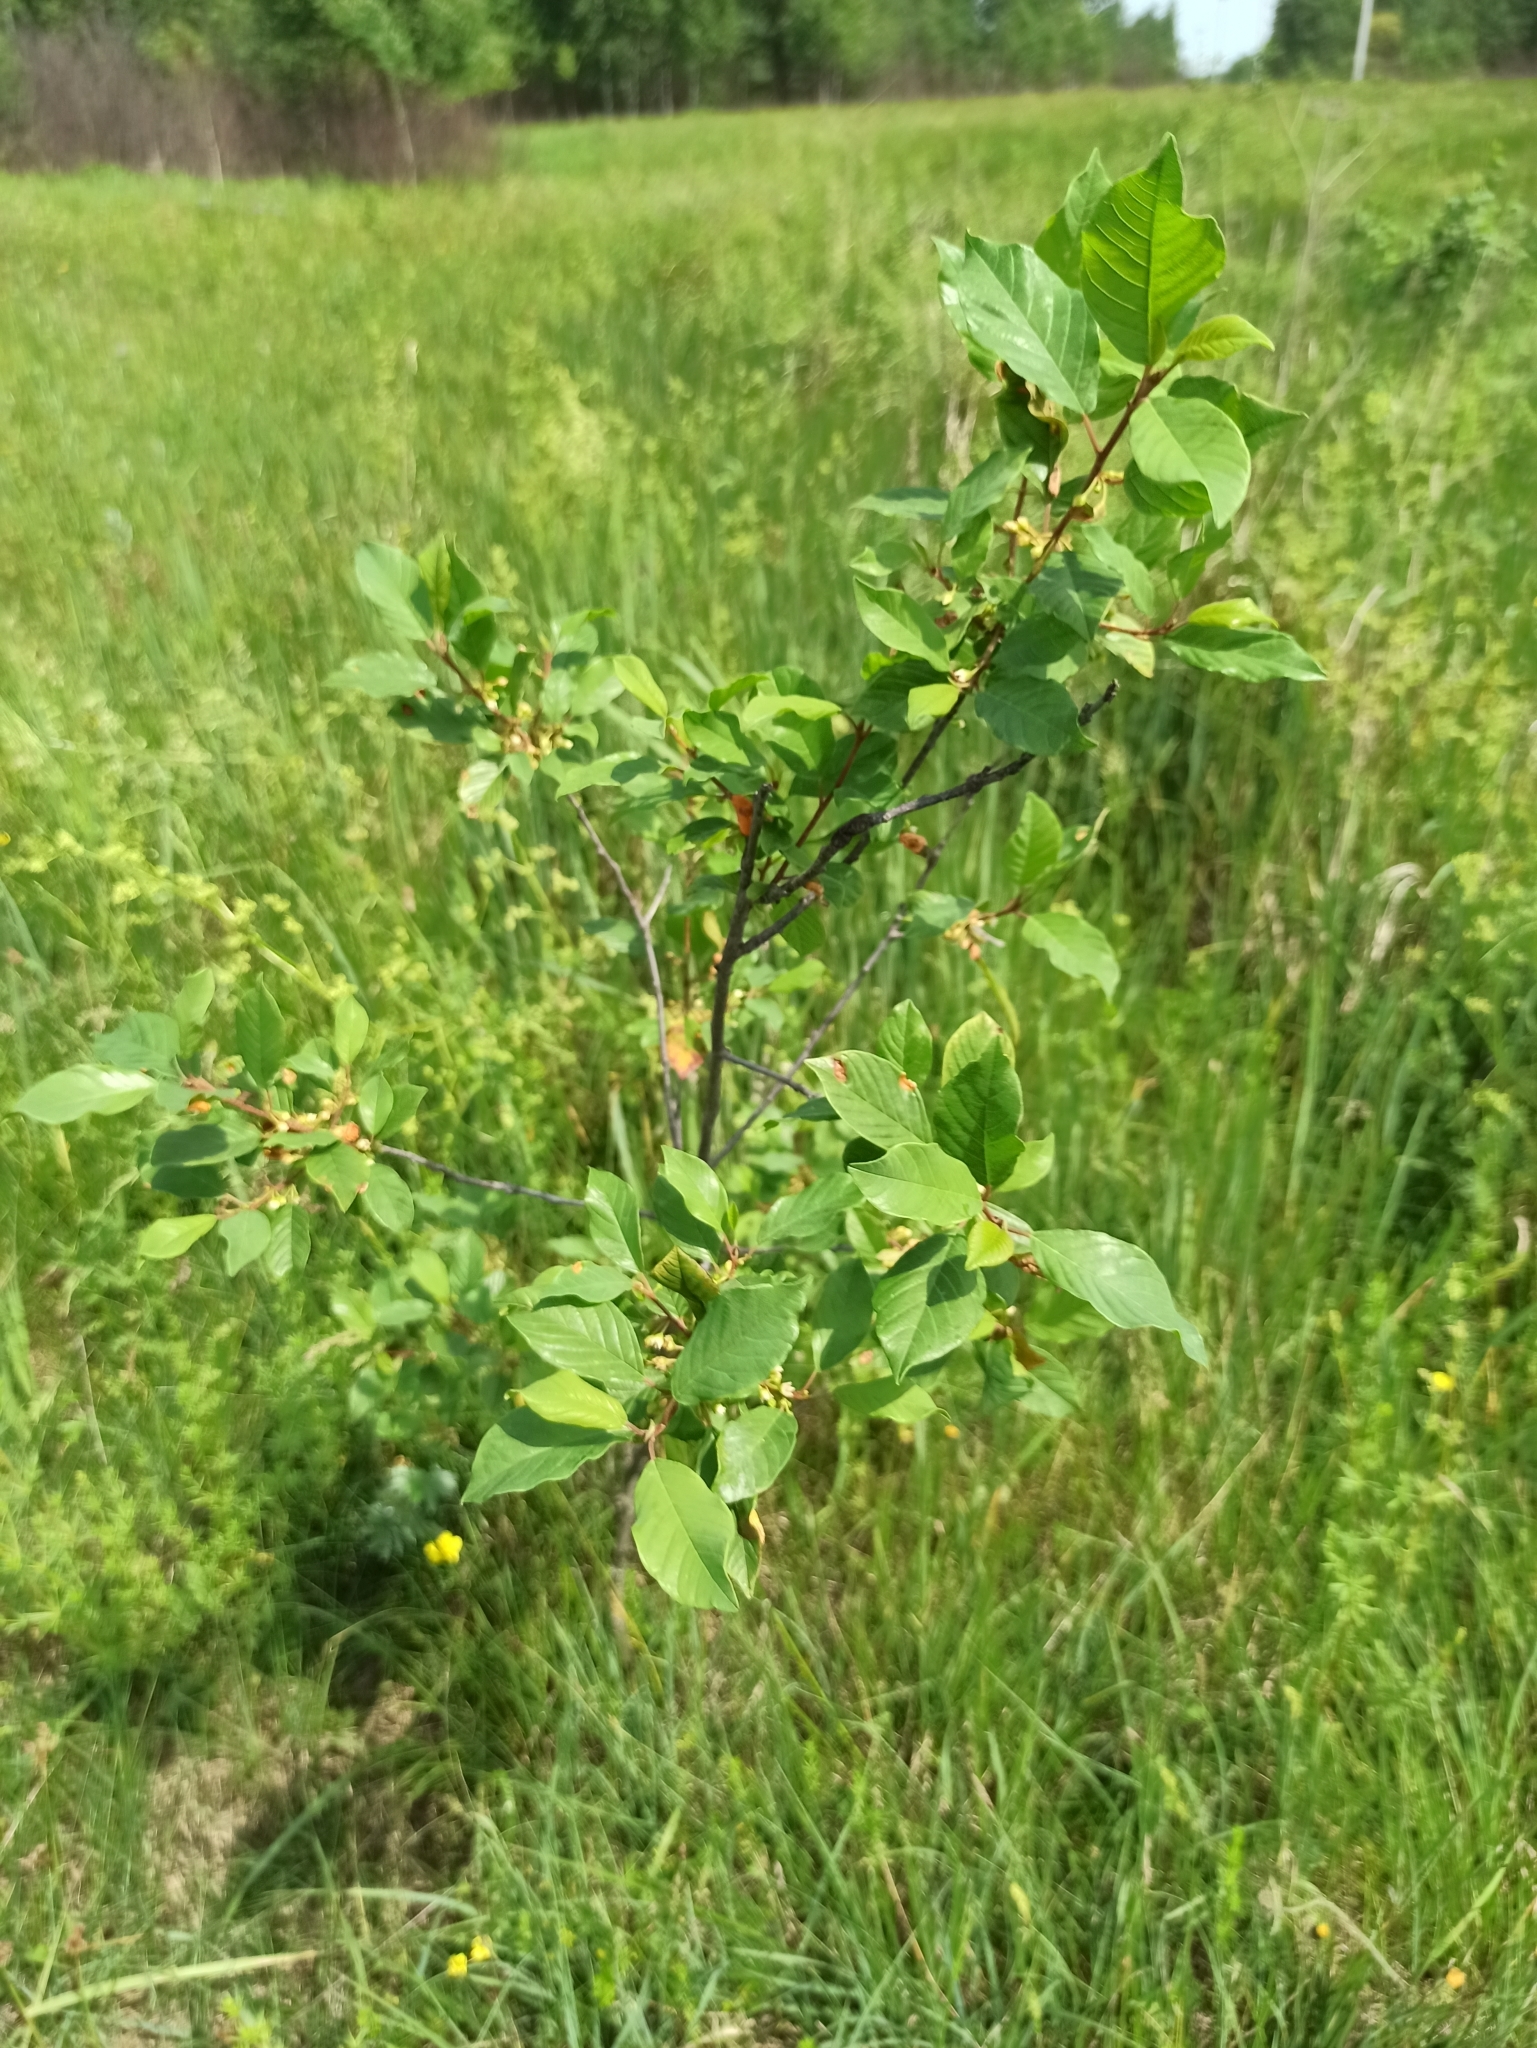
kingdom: Plantae
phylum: Tracheophyta
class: Magnoliopsida
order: Rosales
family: Rhamnaceae
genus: Frangula
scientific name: Frangula alnus
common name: Alder buckthorn
